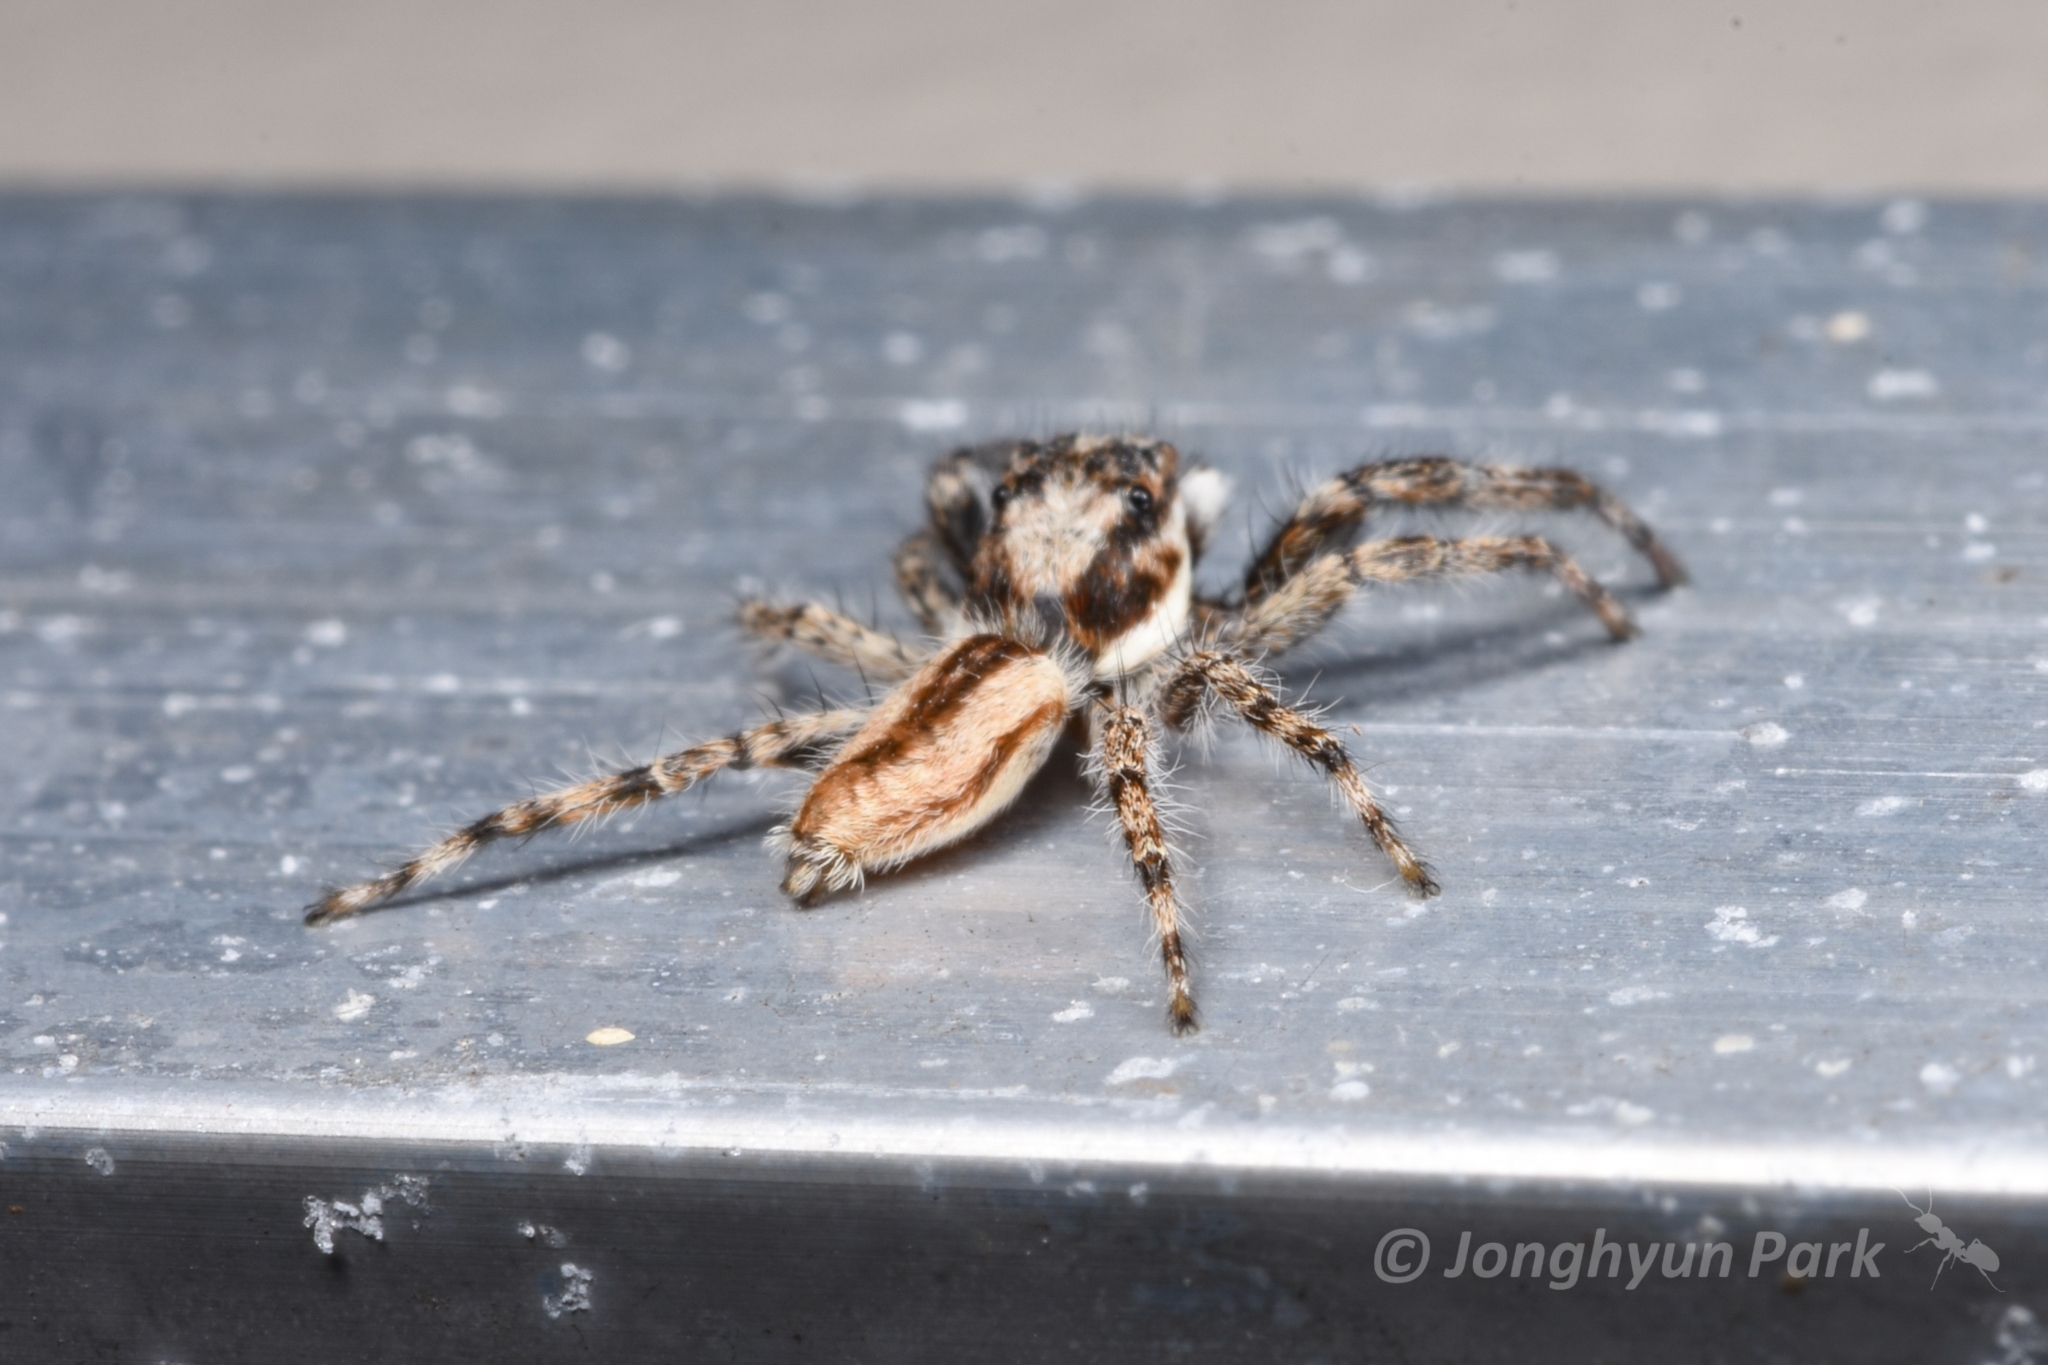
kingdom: Animalia
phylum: Arthropoda
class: Arachnida
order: Araneae
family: Salticidae
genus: Menemerus
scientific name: Menemerus bivittatus
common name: Gray wall jumper
